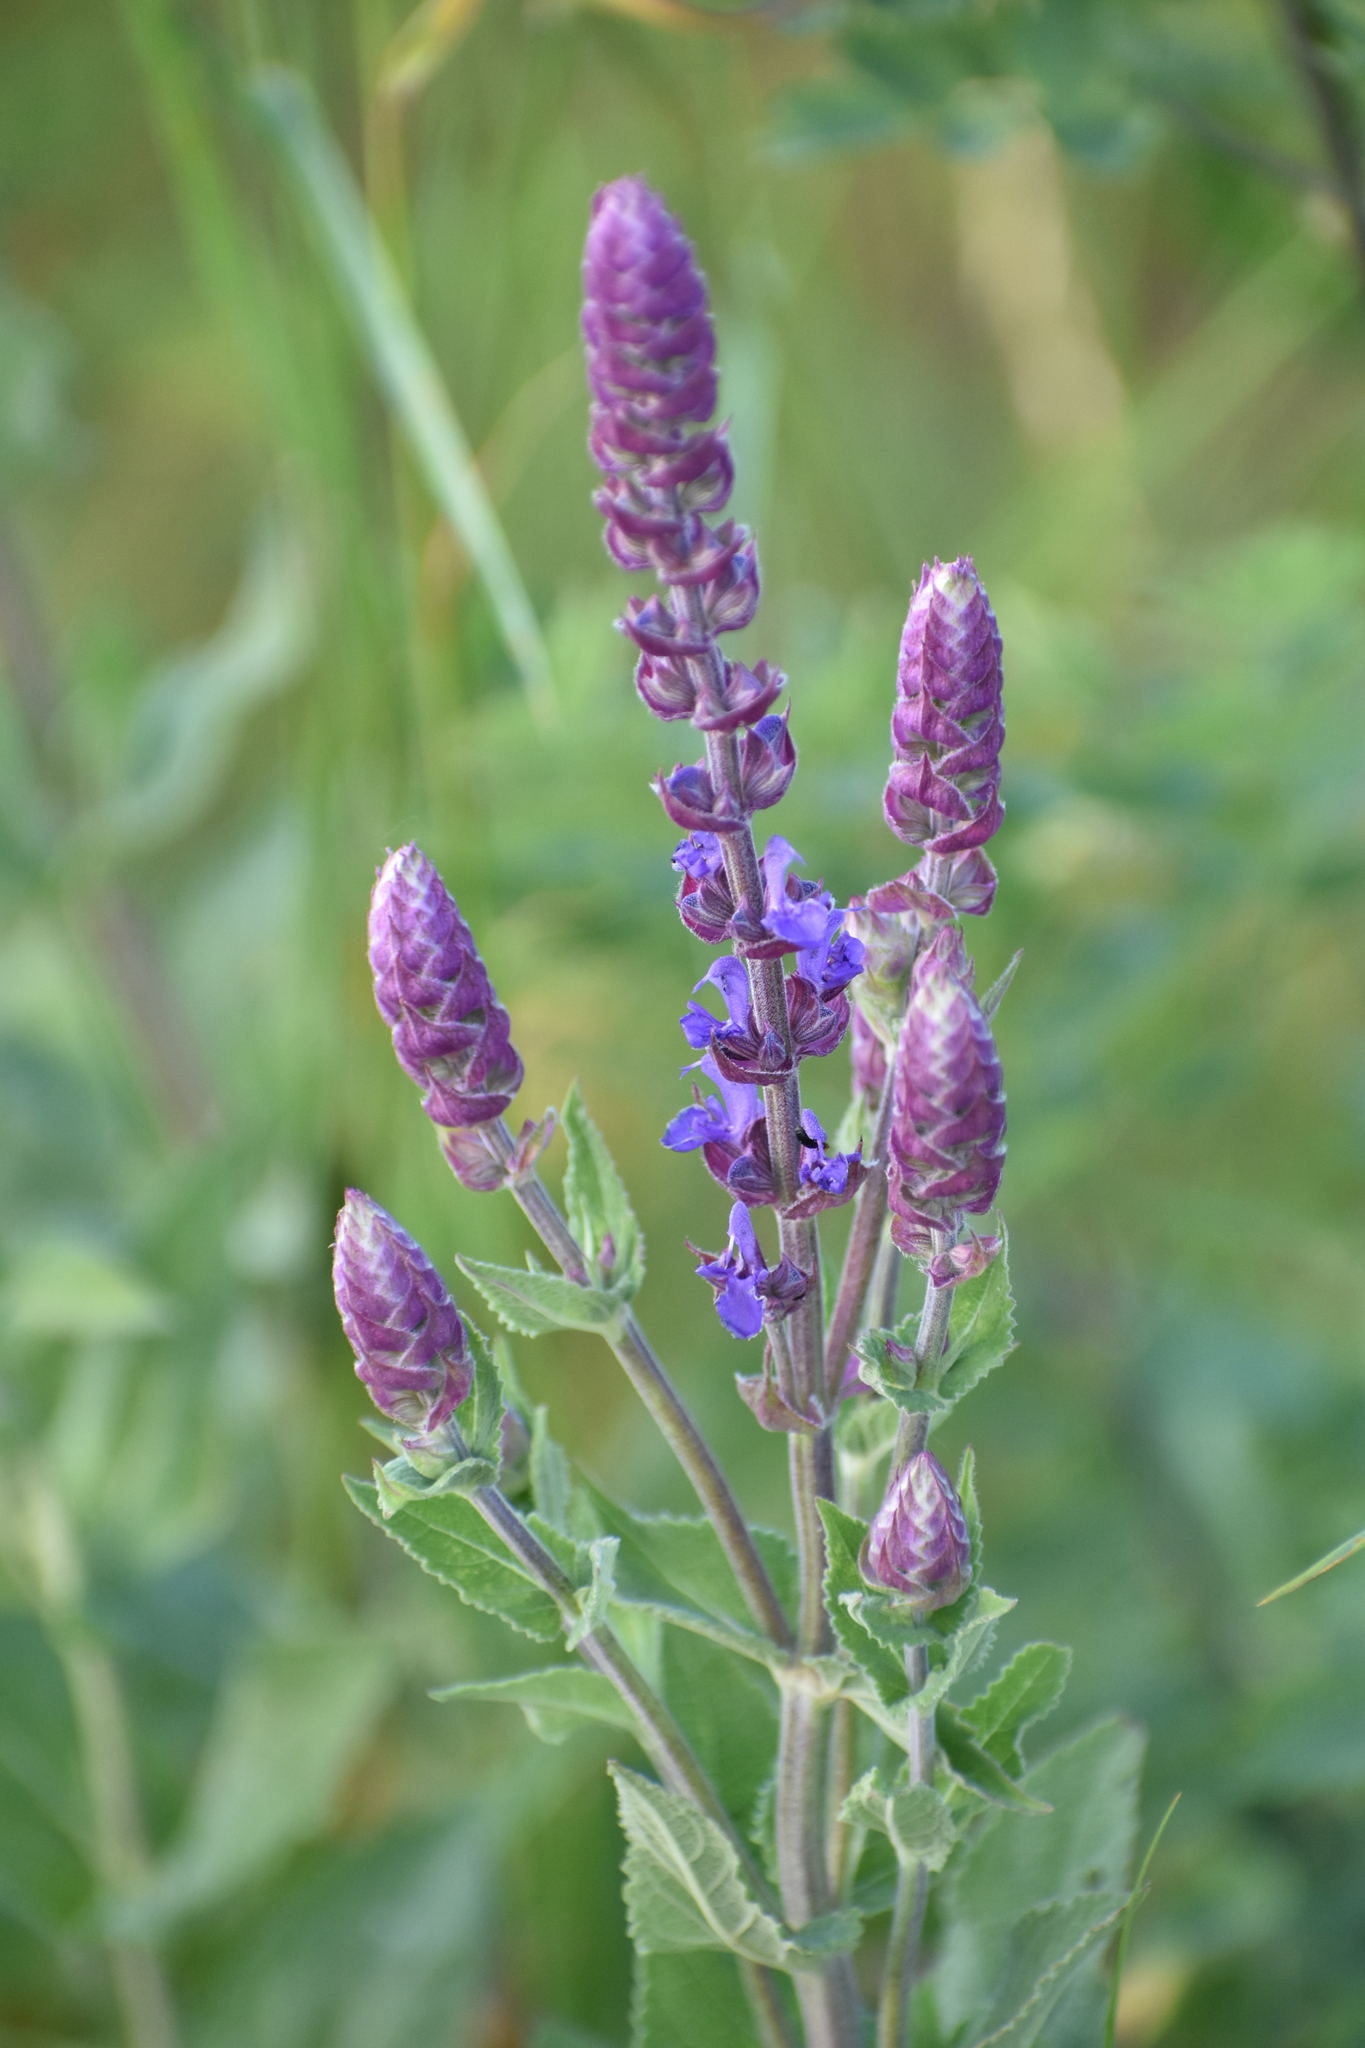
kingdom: Plantae
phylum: Tracheophyta
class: Magnoliopsida
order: Lamiales
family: Lamiaceae
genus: Salvia
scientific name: Salvia nemorosa
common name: Balkan clary
